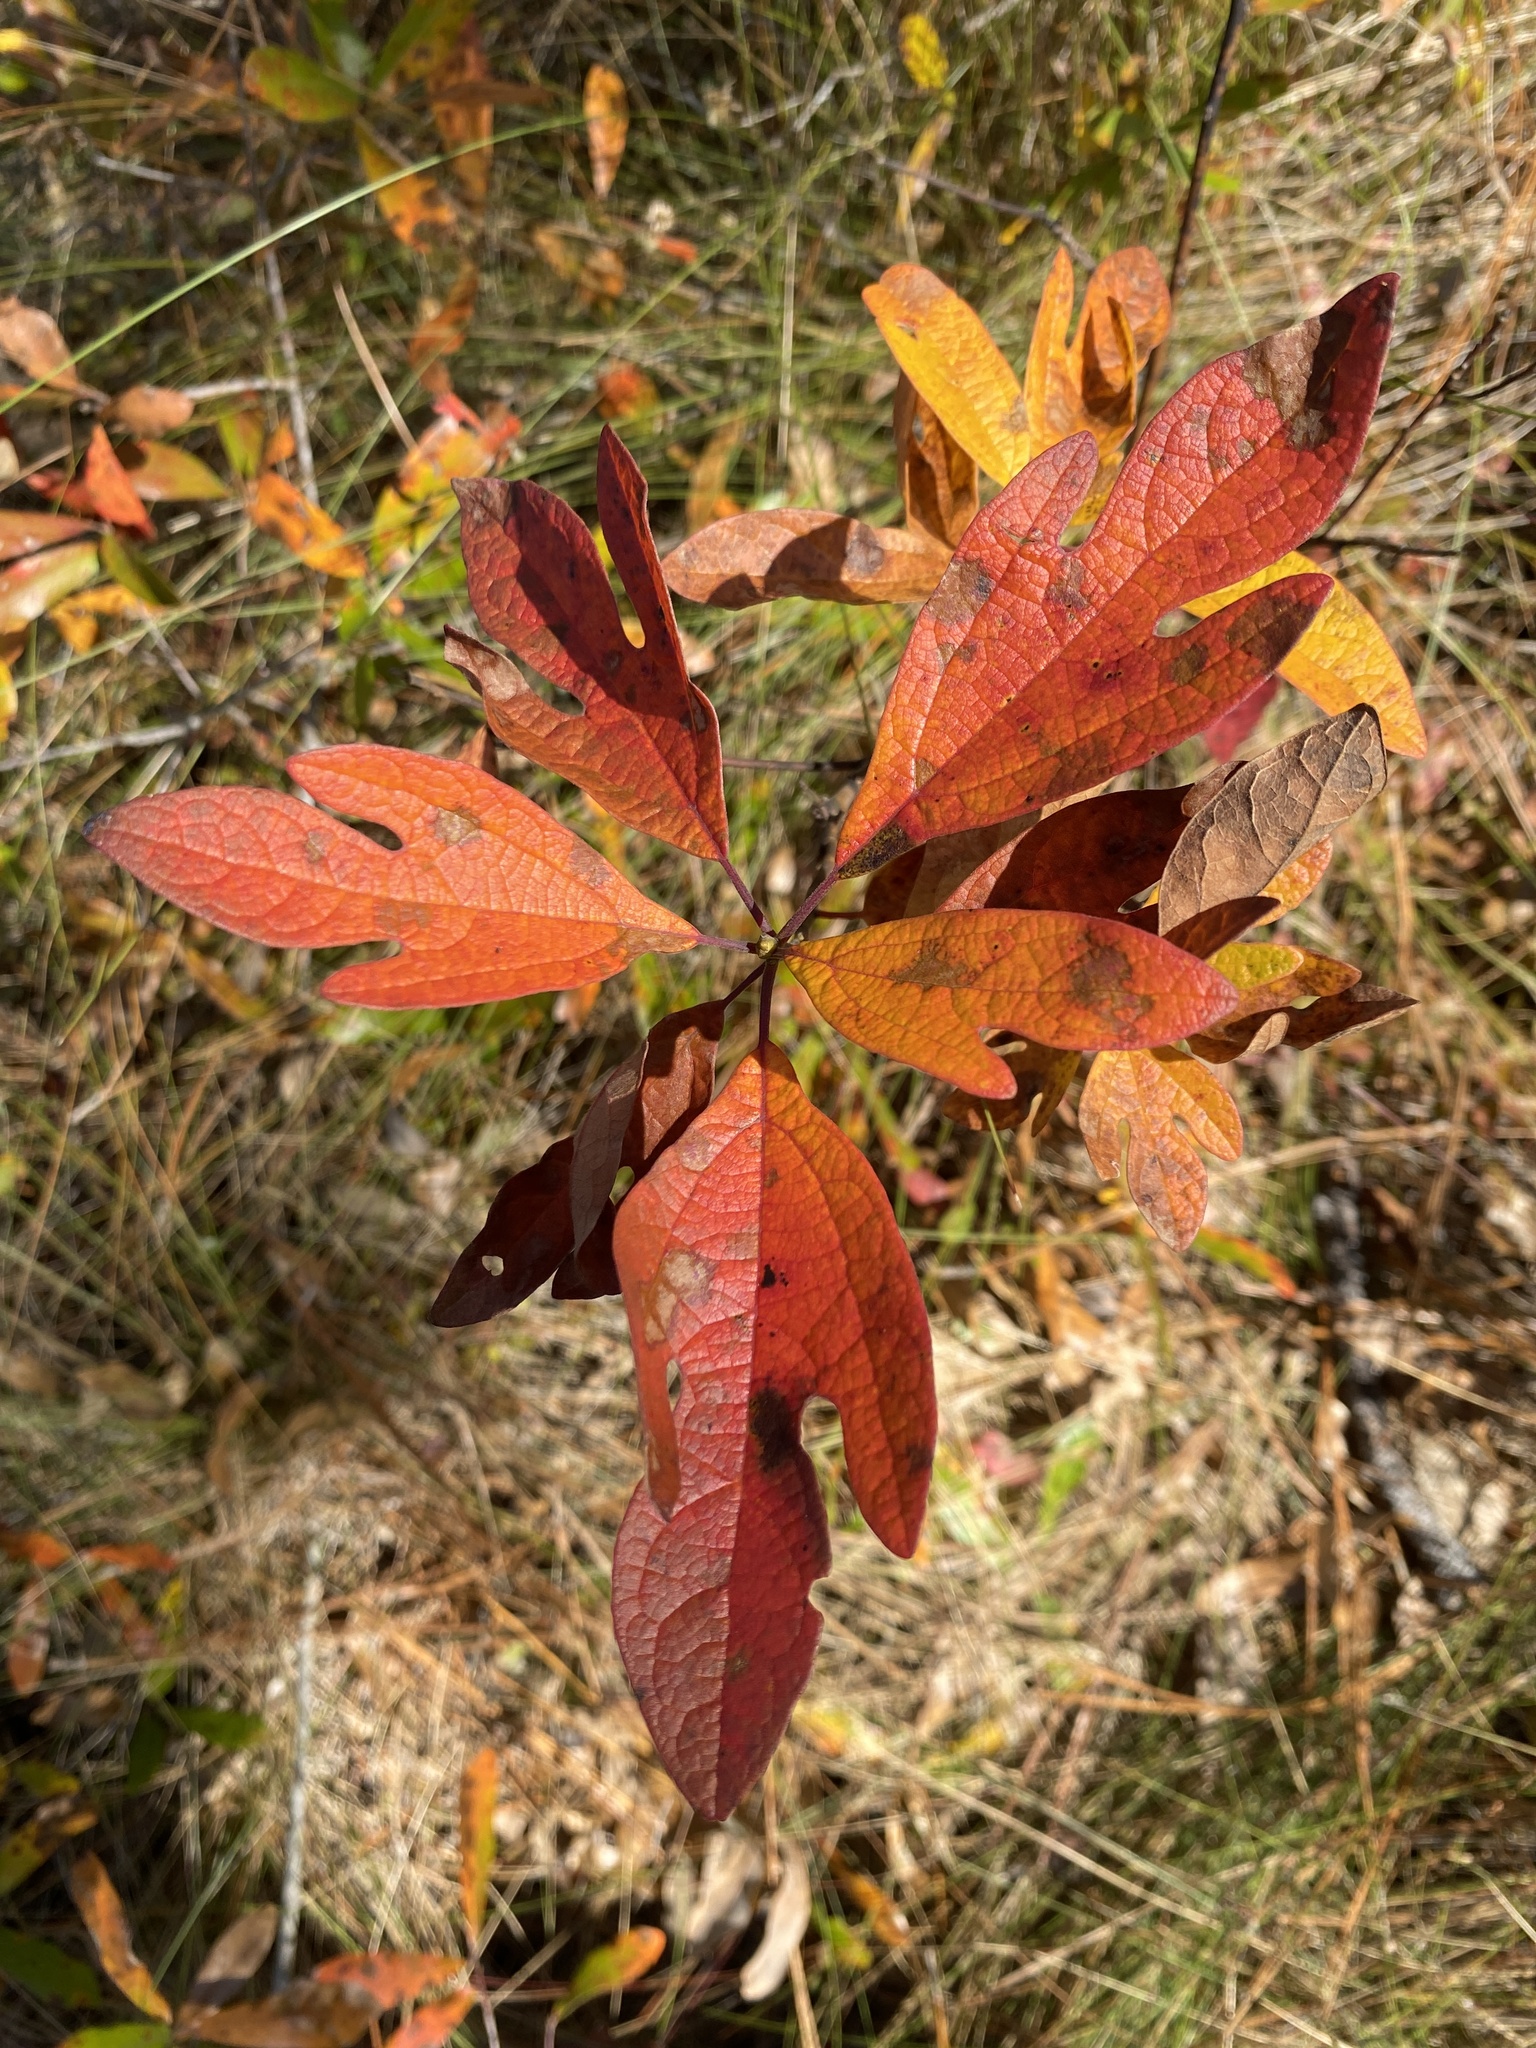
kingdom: Plantae
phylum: Tracheophyta
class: Magnoliopsida
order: Laurales
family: Lauraceae
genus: Sassafras
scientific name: Sassafras albidum
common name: Sassafras
